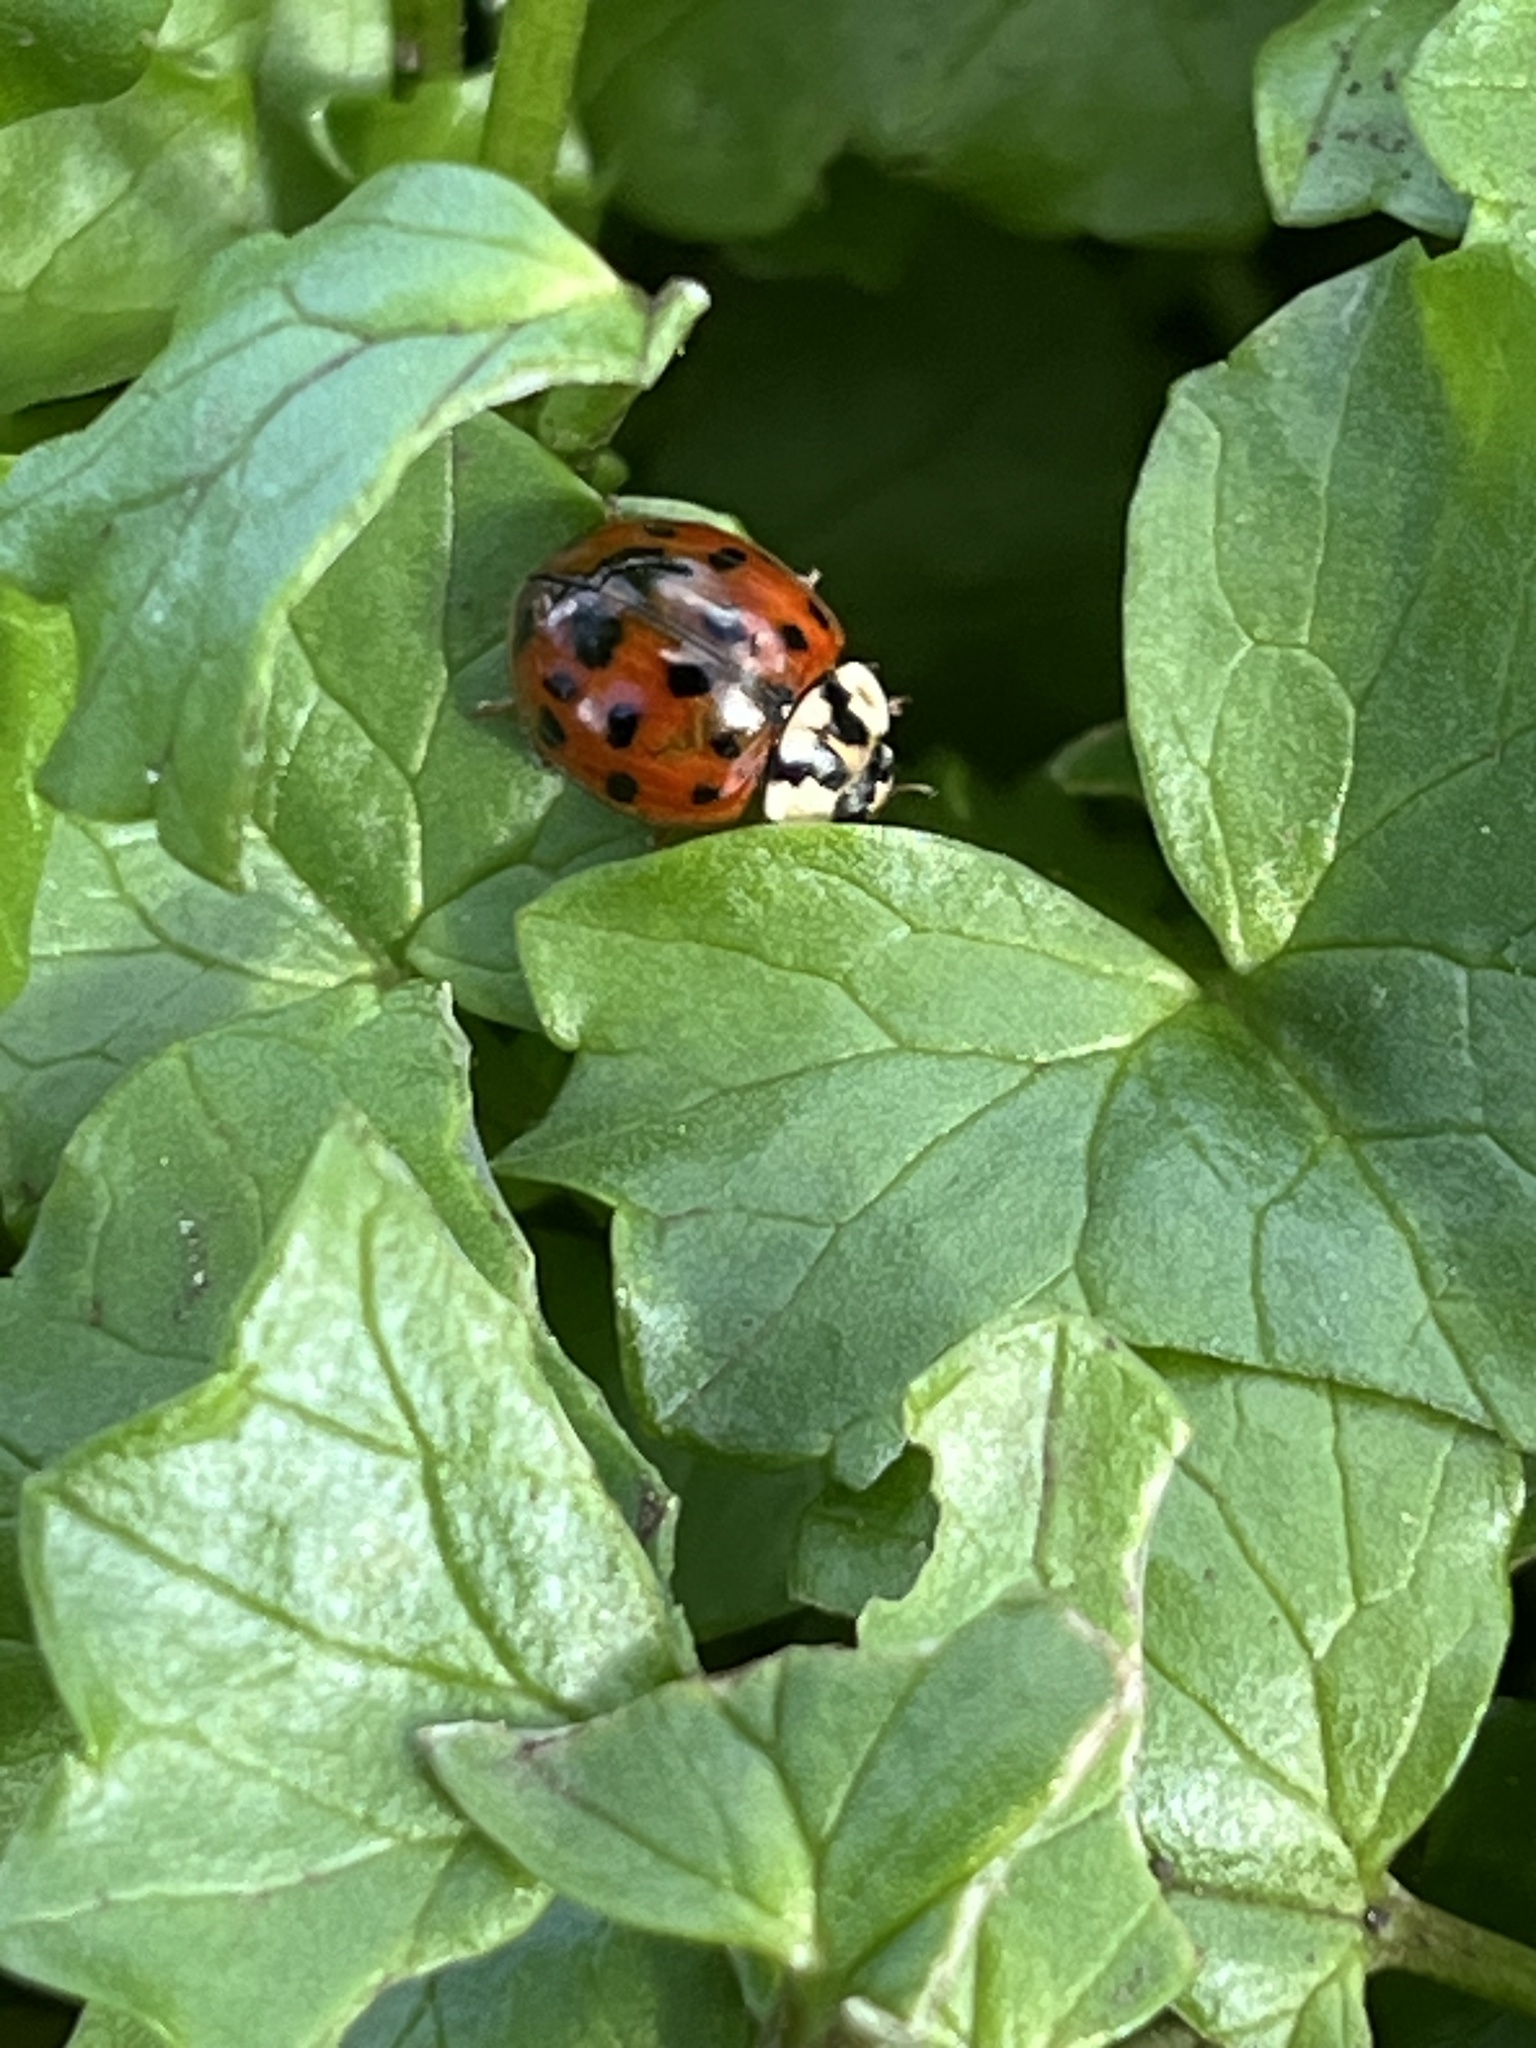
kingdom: Animalia
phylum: Arthropoda
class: Insecta
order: Coleoptera
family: Coccinellidae
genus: Harmonia
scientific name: Harmonia axyridis
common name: Harlequin ladybird
